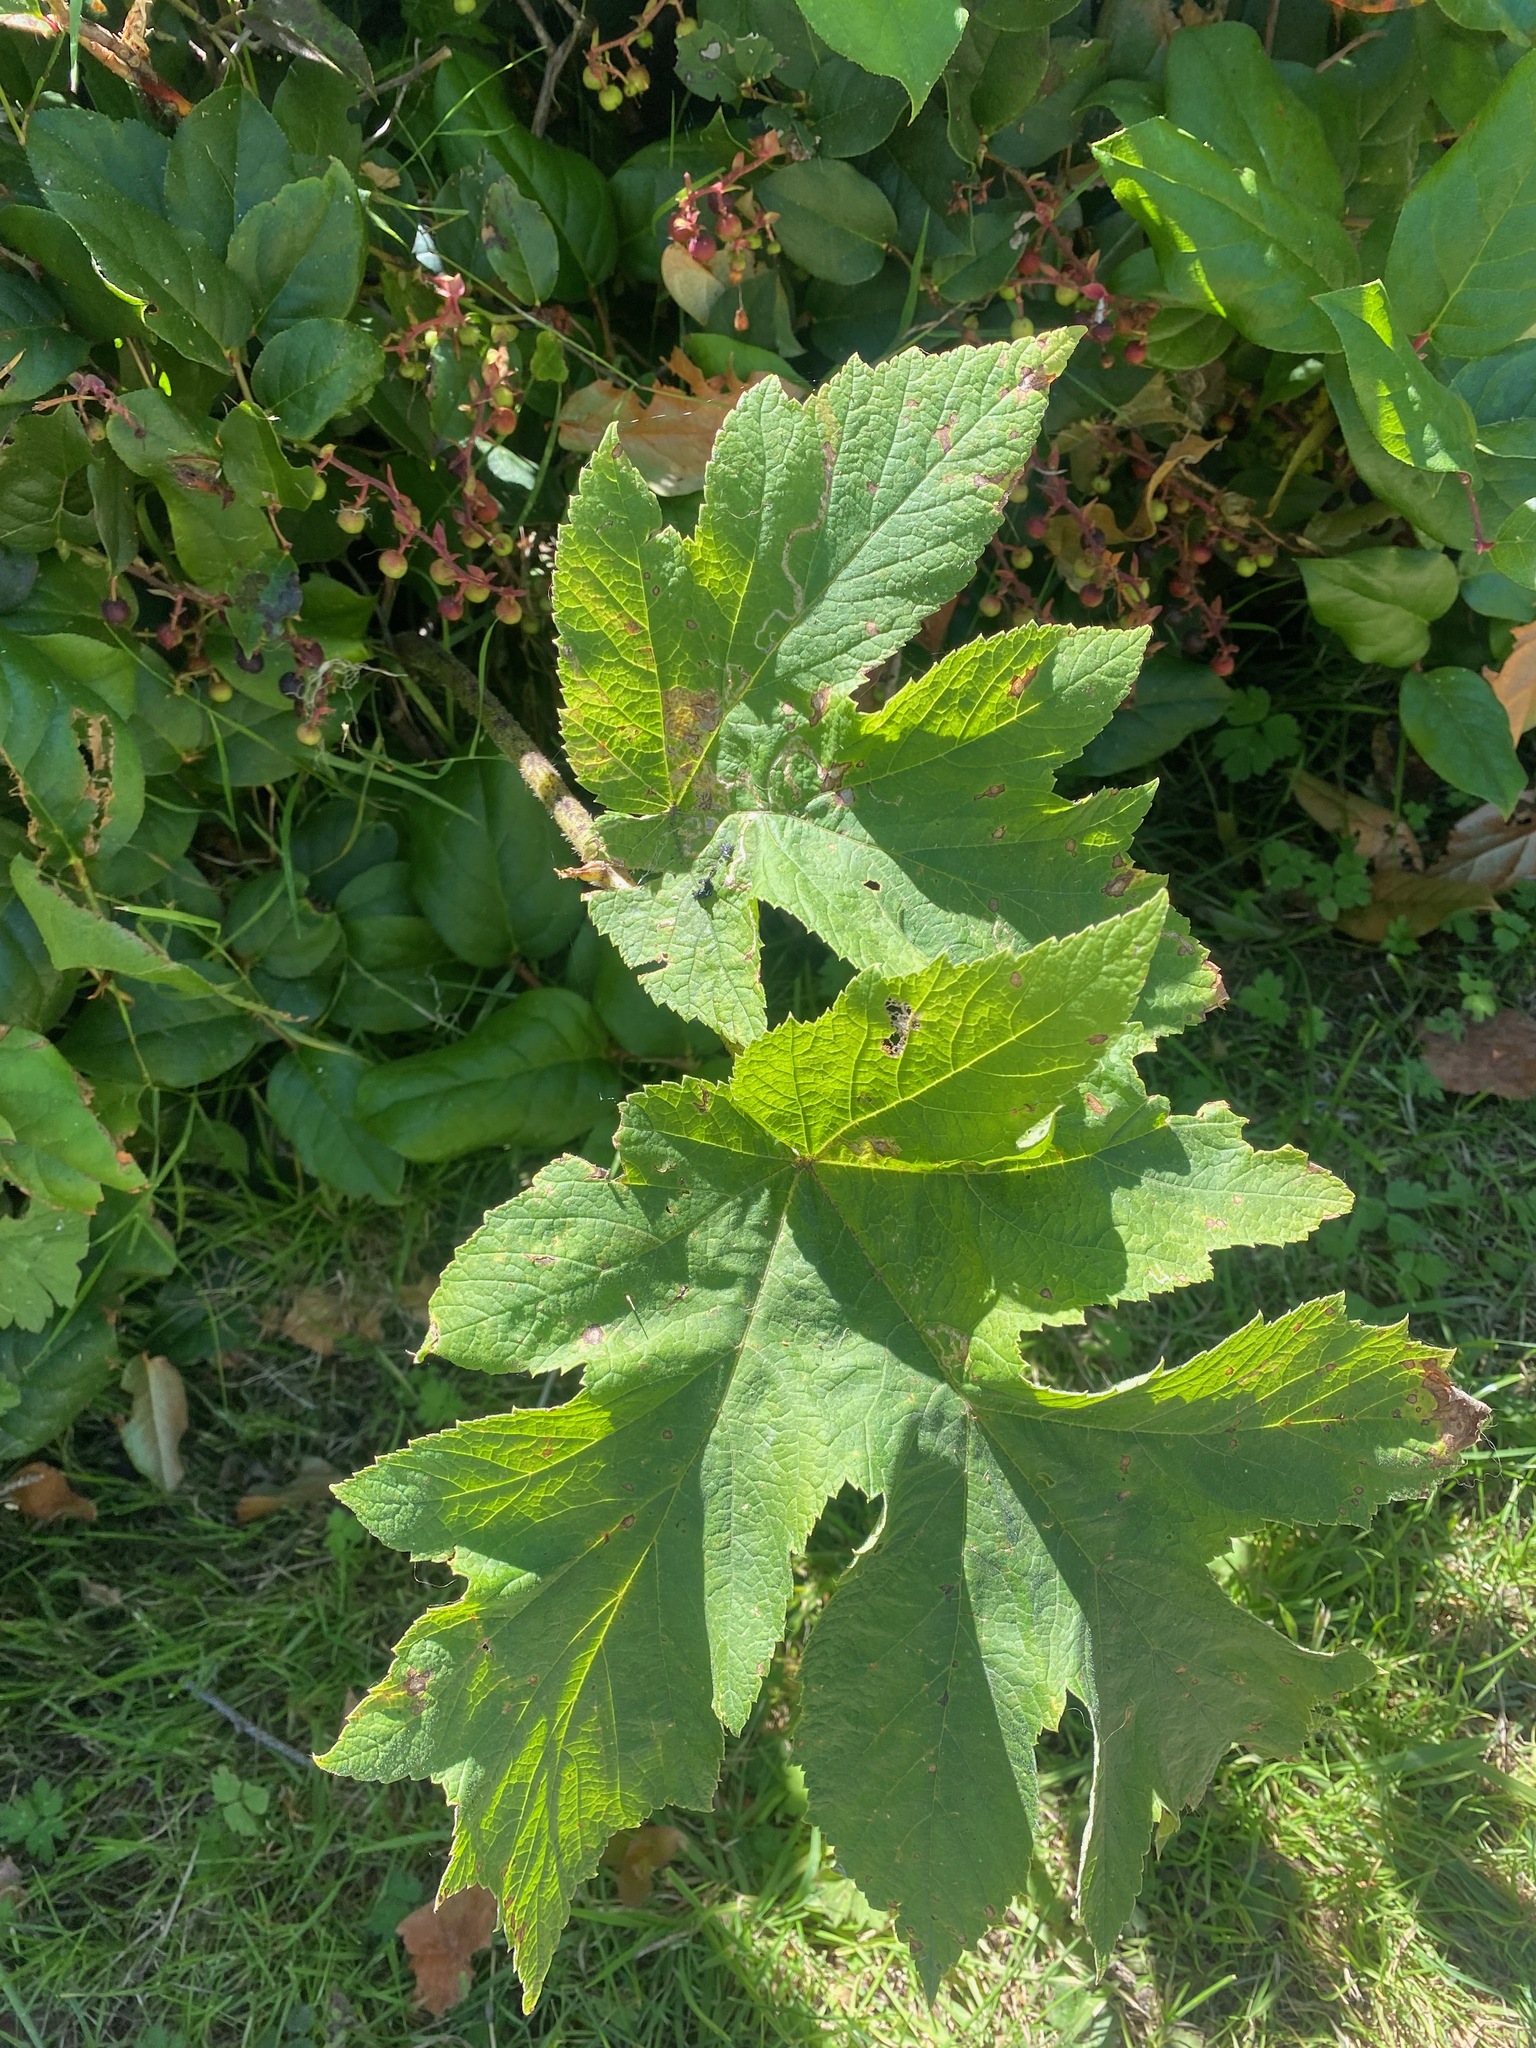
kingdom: Plantae
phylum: Tracheophyta
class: Magnoliopsida
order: Apiales
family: Apiaceae
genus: Heracleum
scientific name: Heracleum maximum
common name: American cow parsnip
